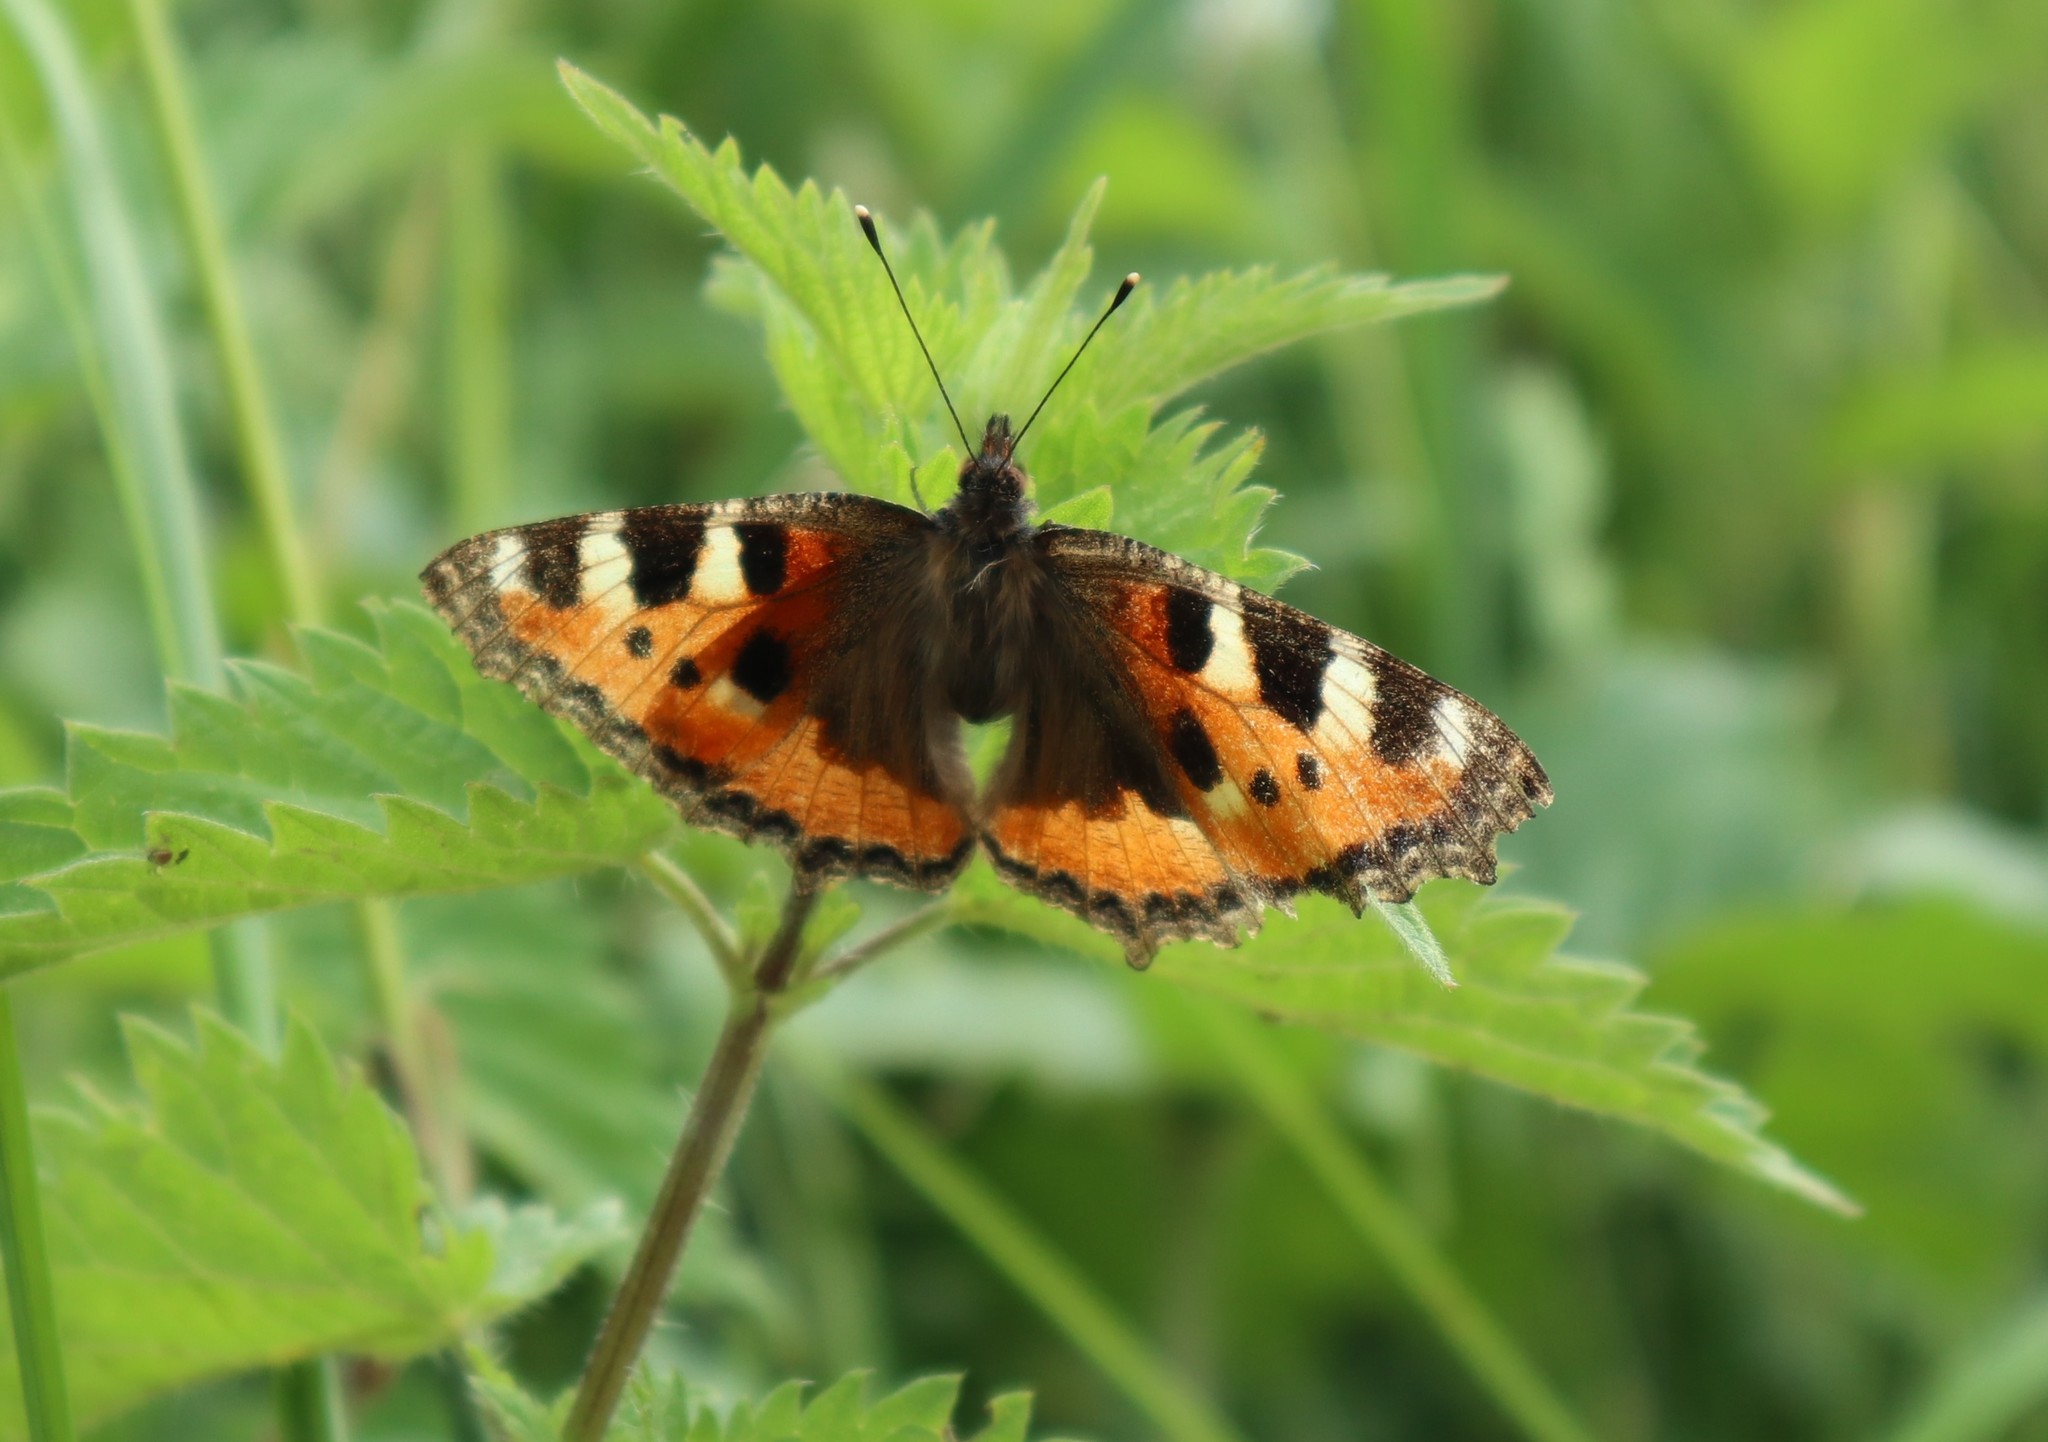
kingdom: Animalia
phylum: Arthropoda
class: Insecta
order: Lepidoptera
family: Nymphalidae
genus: Aglais
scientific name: Aglais urticae
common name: Small tortoiseshell
